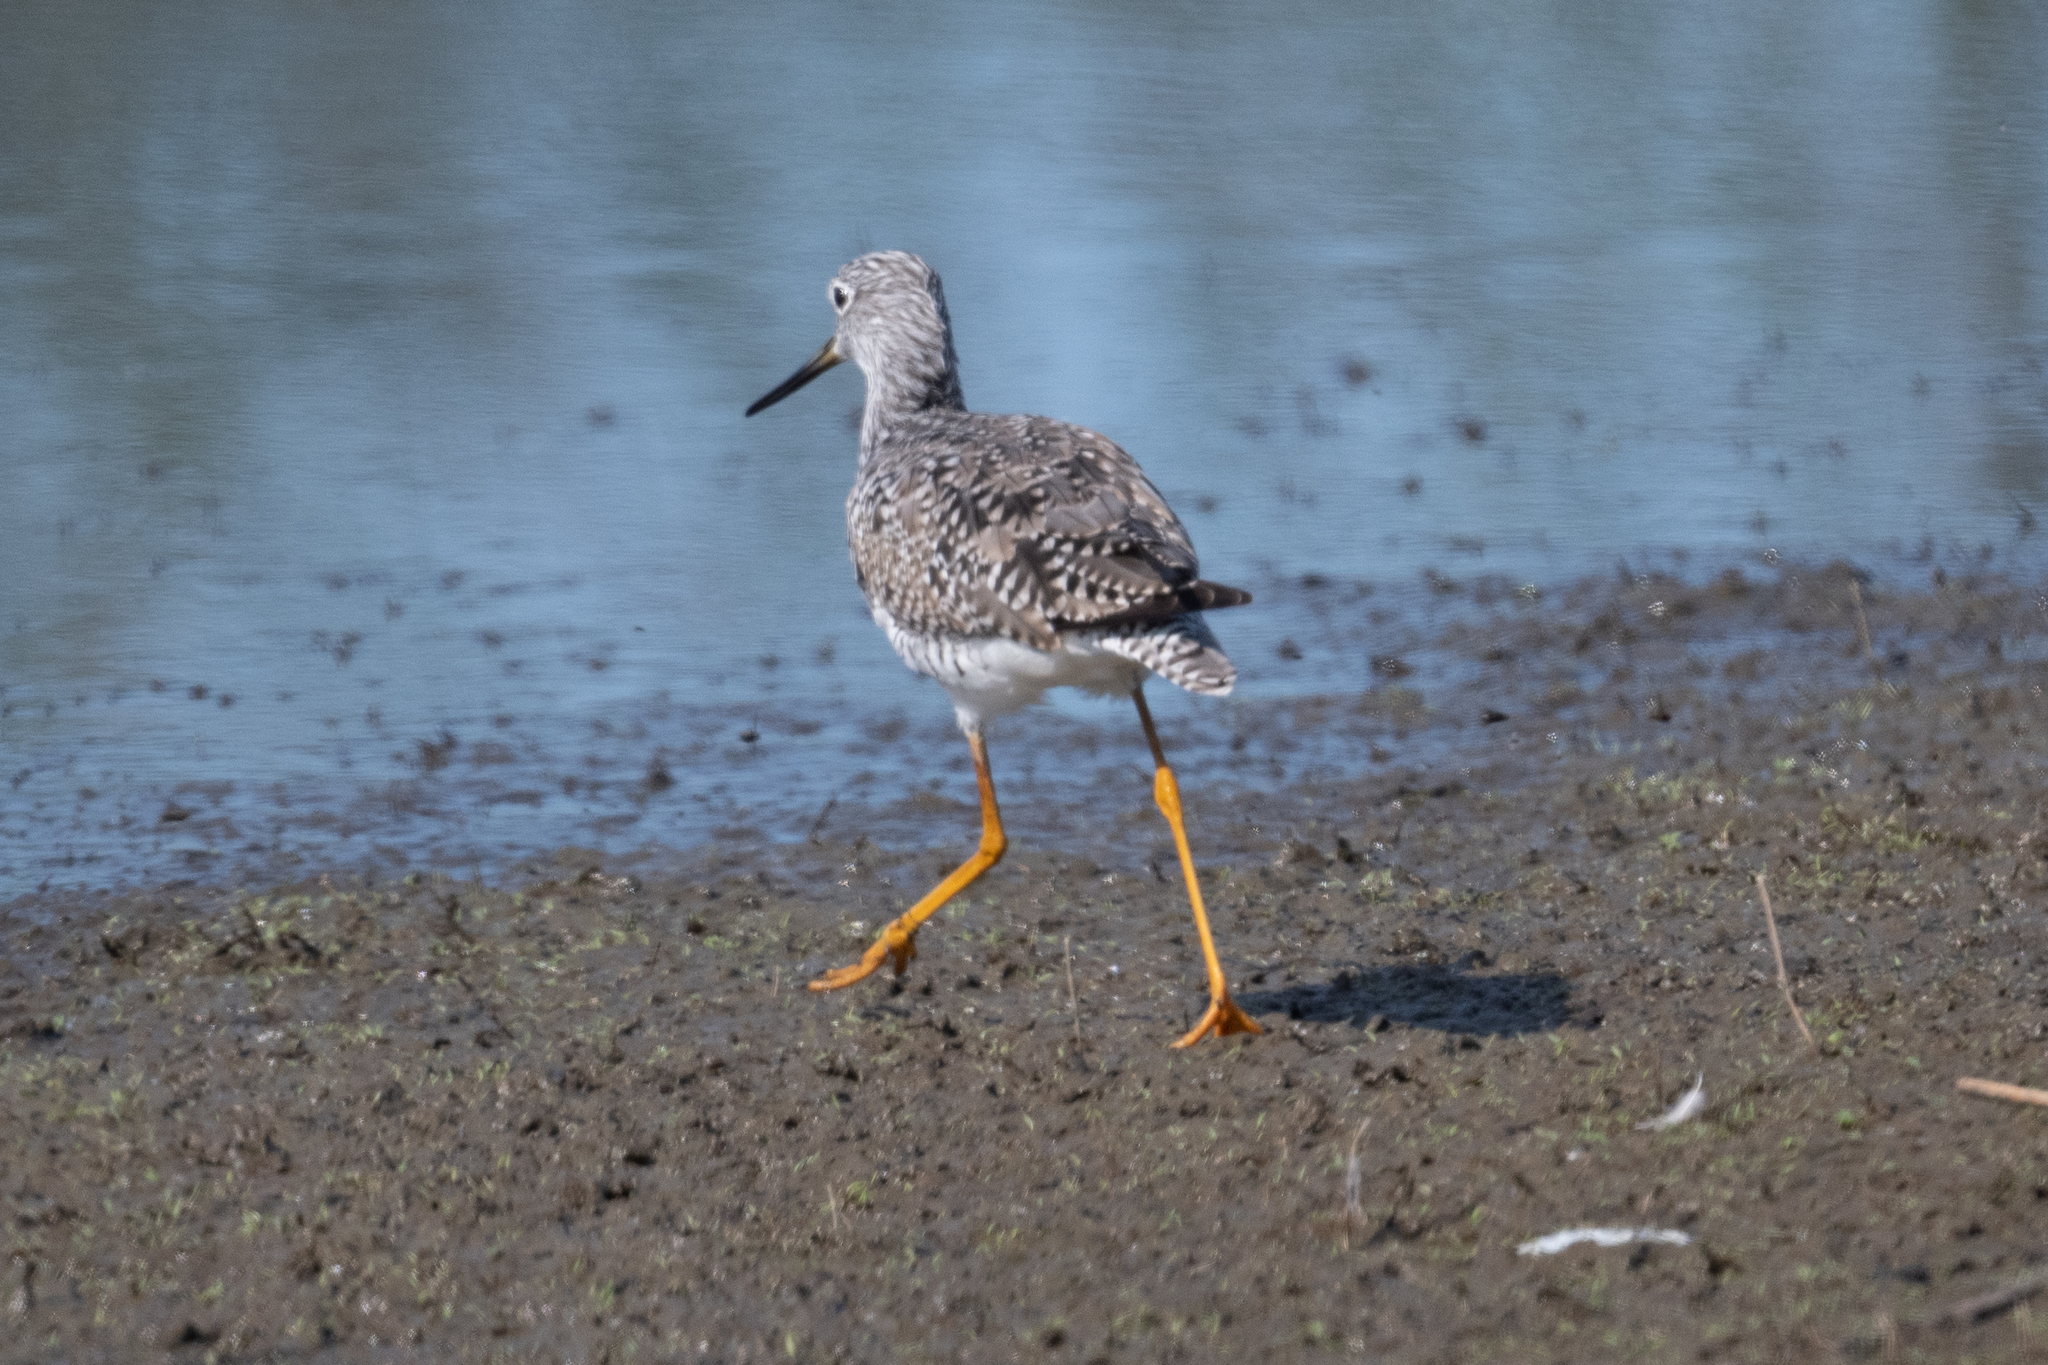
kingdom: Animalia
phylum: Chordata
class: Aves
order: Charadriiformes
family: Scolopacidae
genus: Tringa
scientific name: Tringa melanoleuca
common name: Greater yellowlegs
